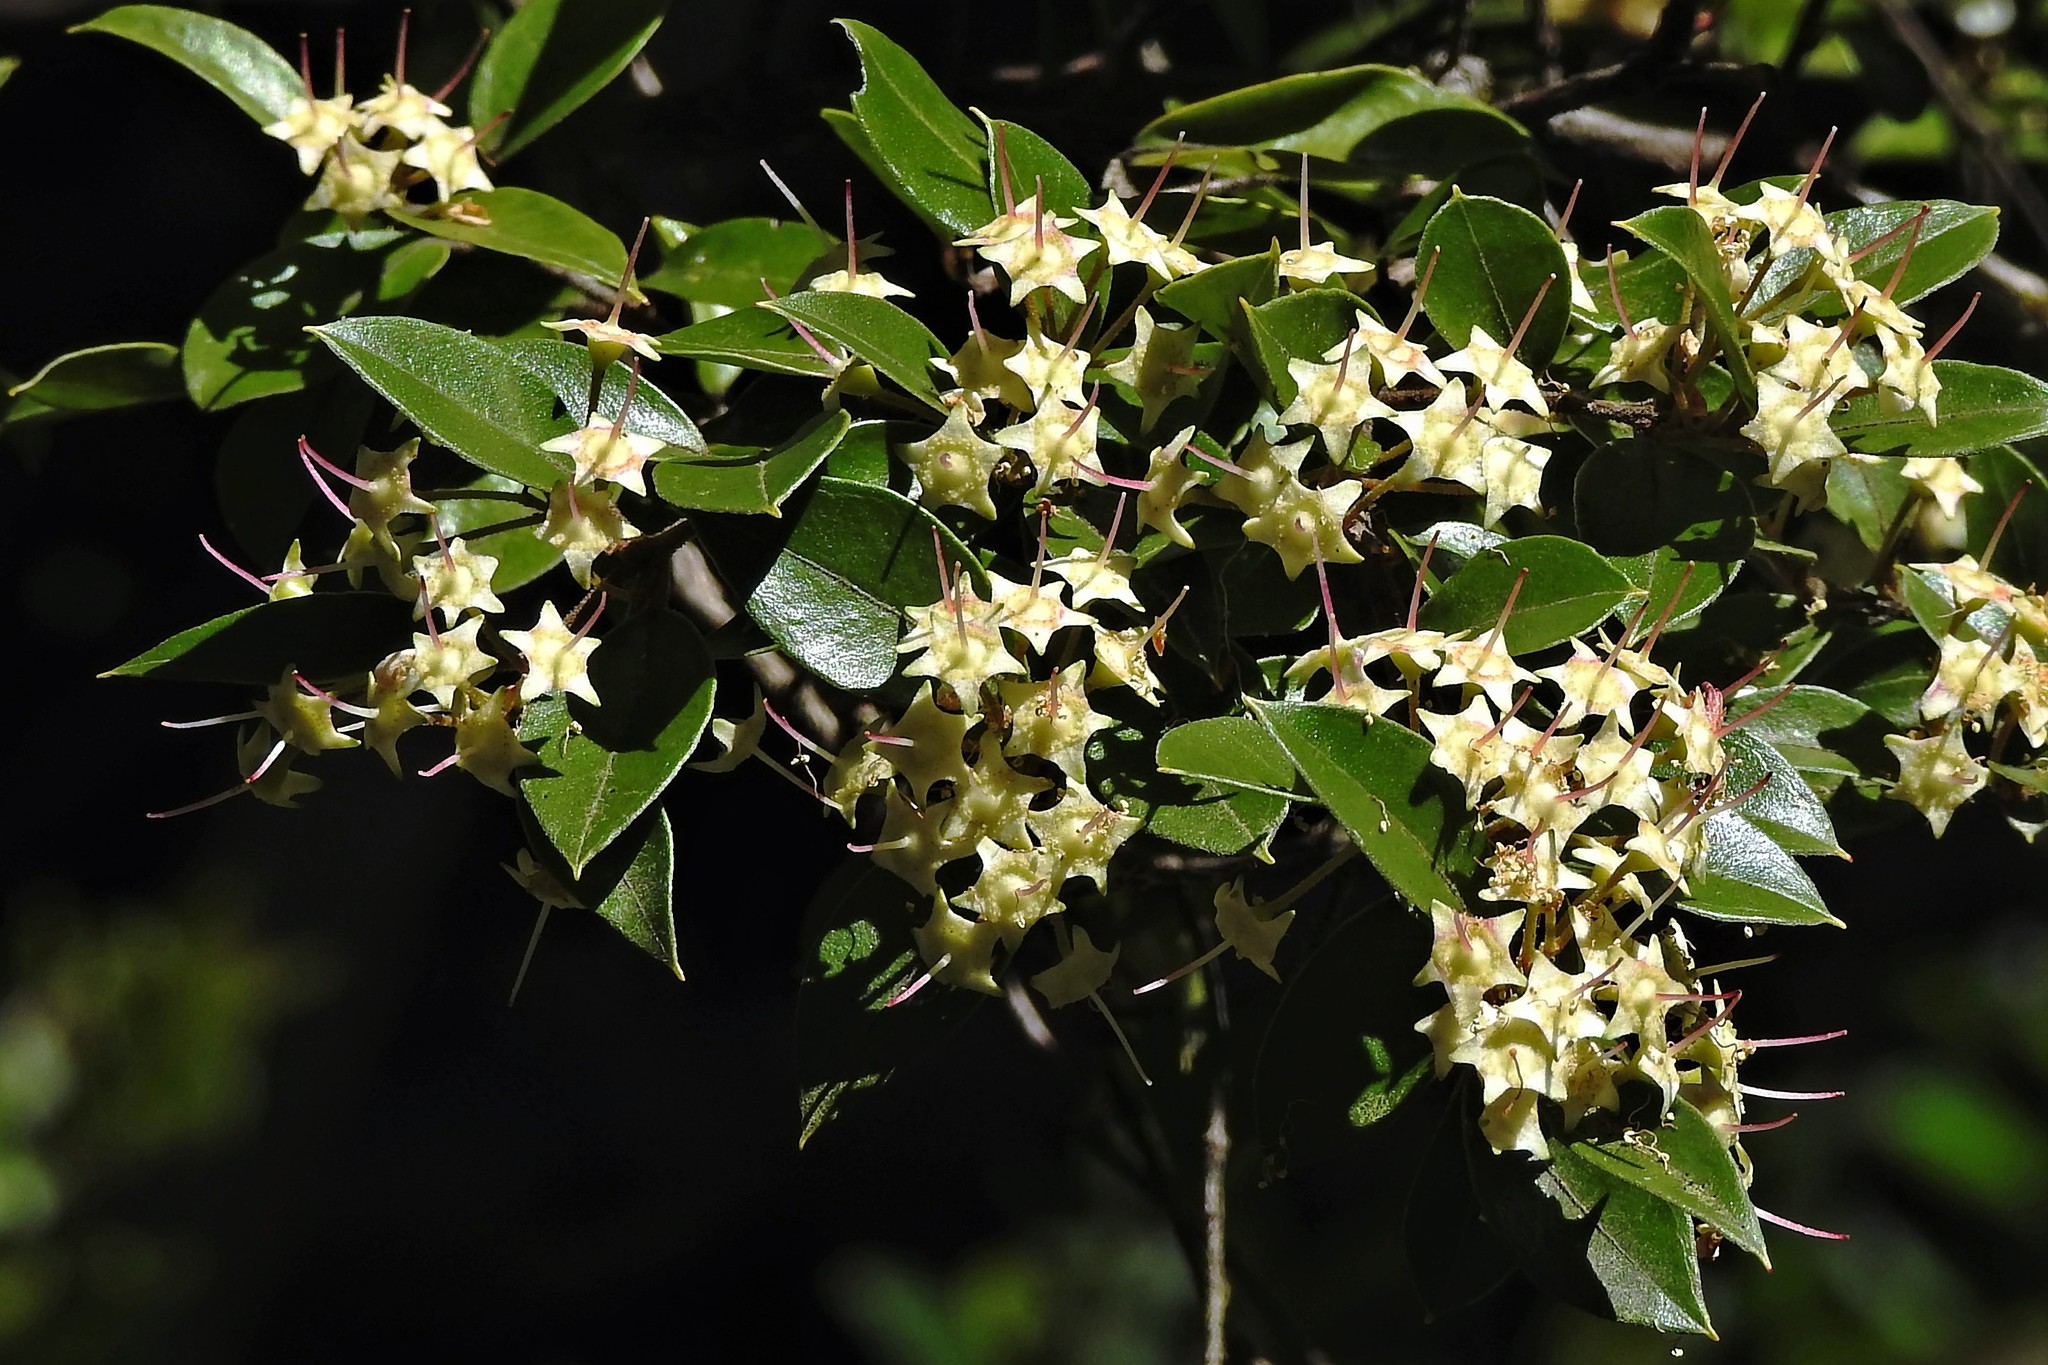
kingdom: Plantae
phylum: Tracheophyta
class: Magnoliopsida
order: Myrtales
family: Myrtaceae
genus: Amomyrtus
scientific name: Amomyrtus luma
